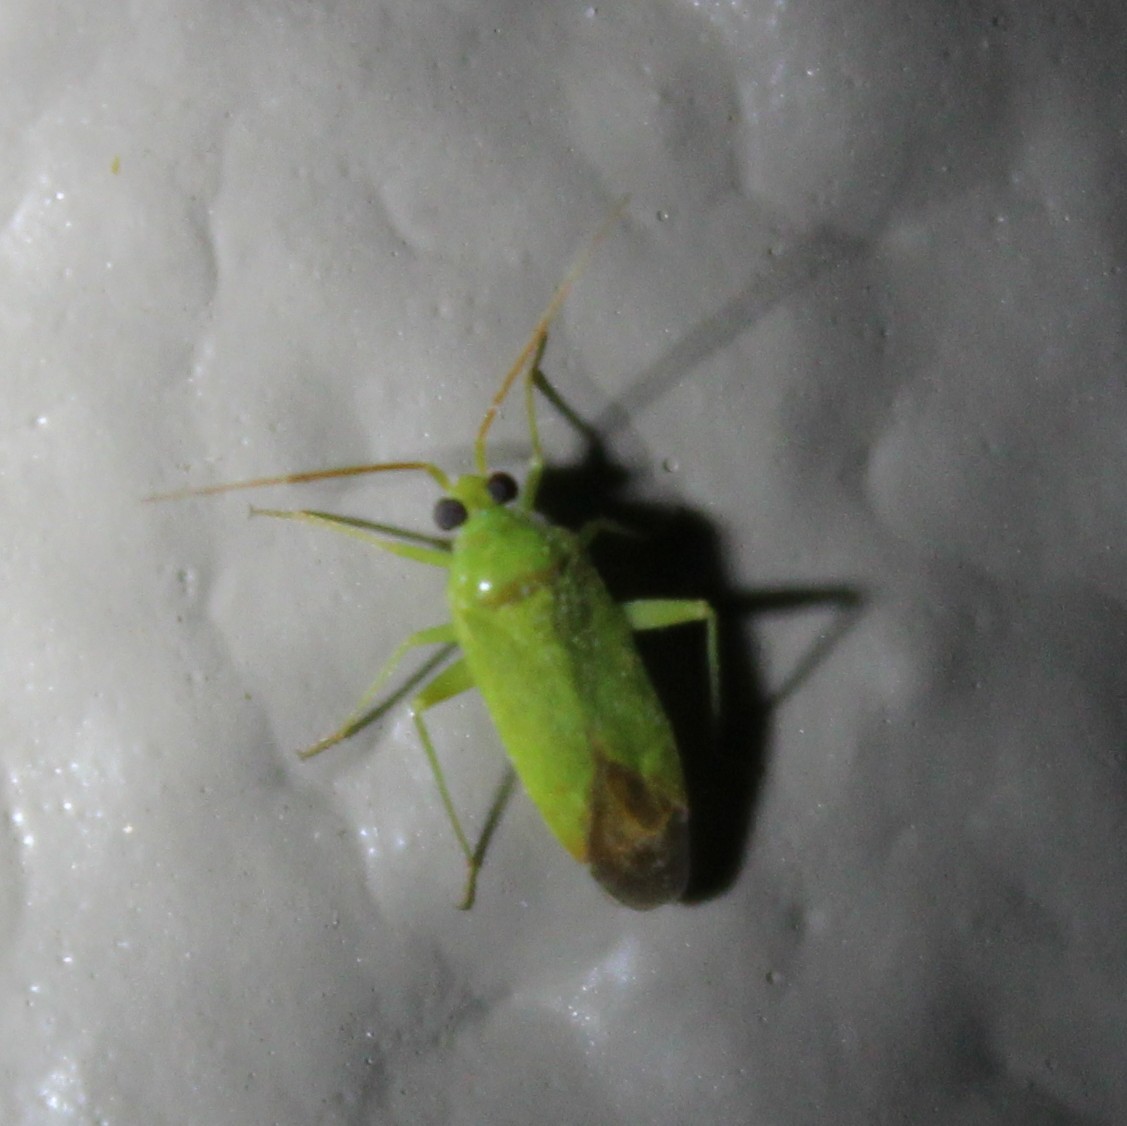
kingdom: Animalia
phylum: Arthropoda
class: Insecta
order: Hemiptera
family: Miridae
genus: Phytocoris
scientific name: Phytocoris vanduzeei
